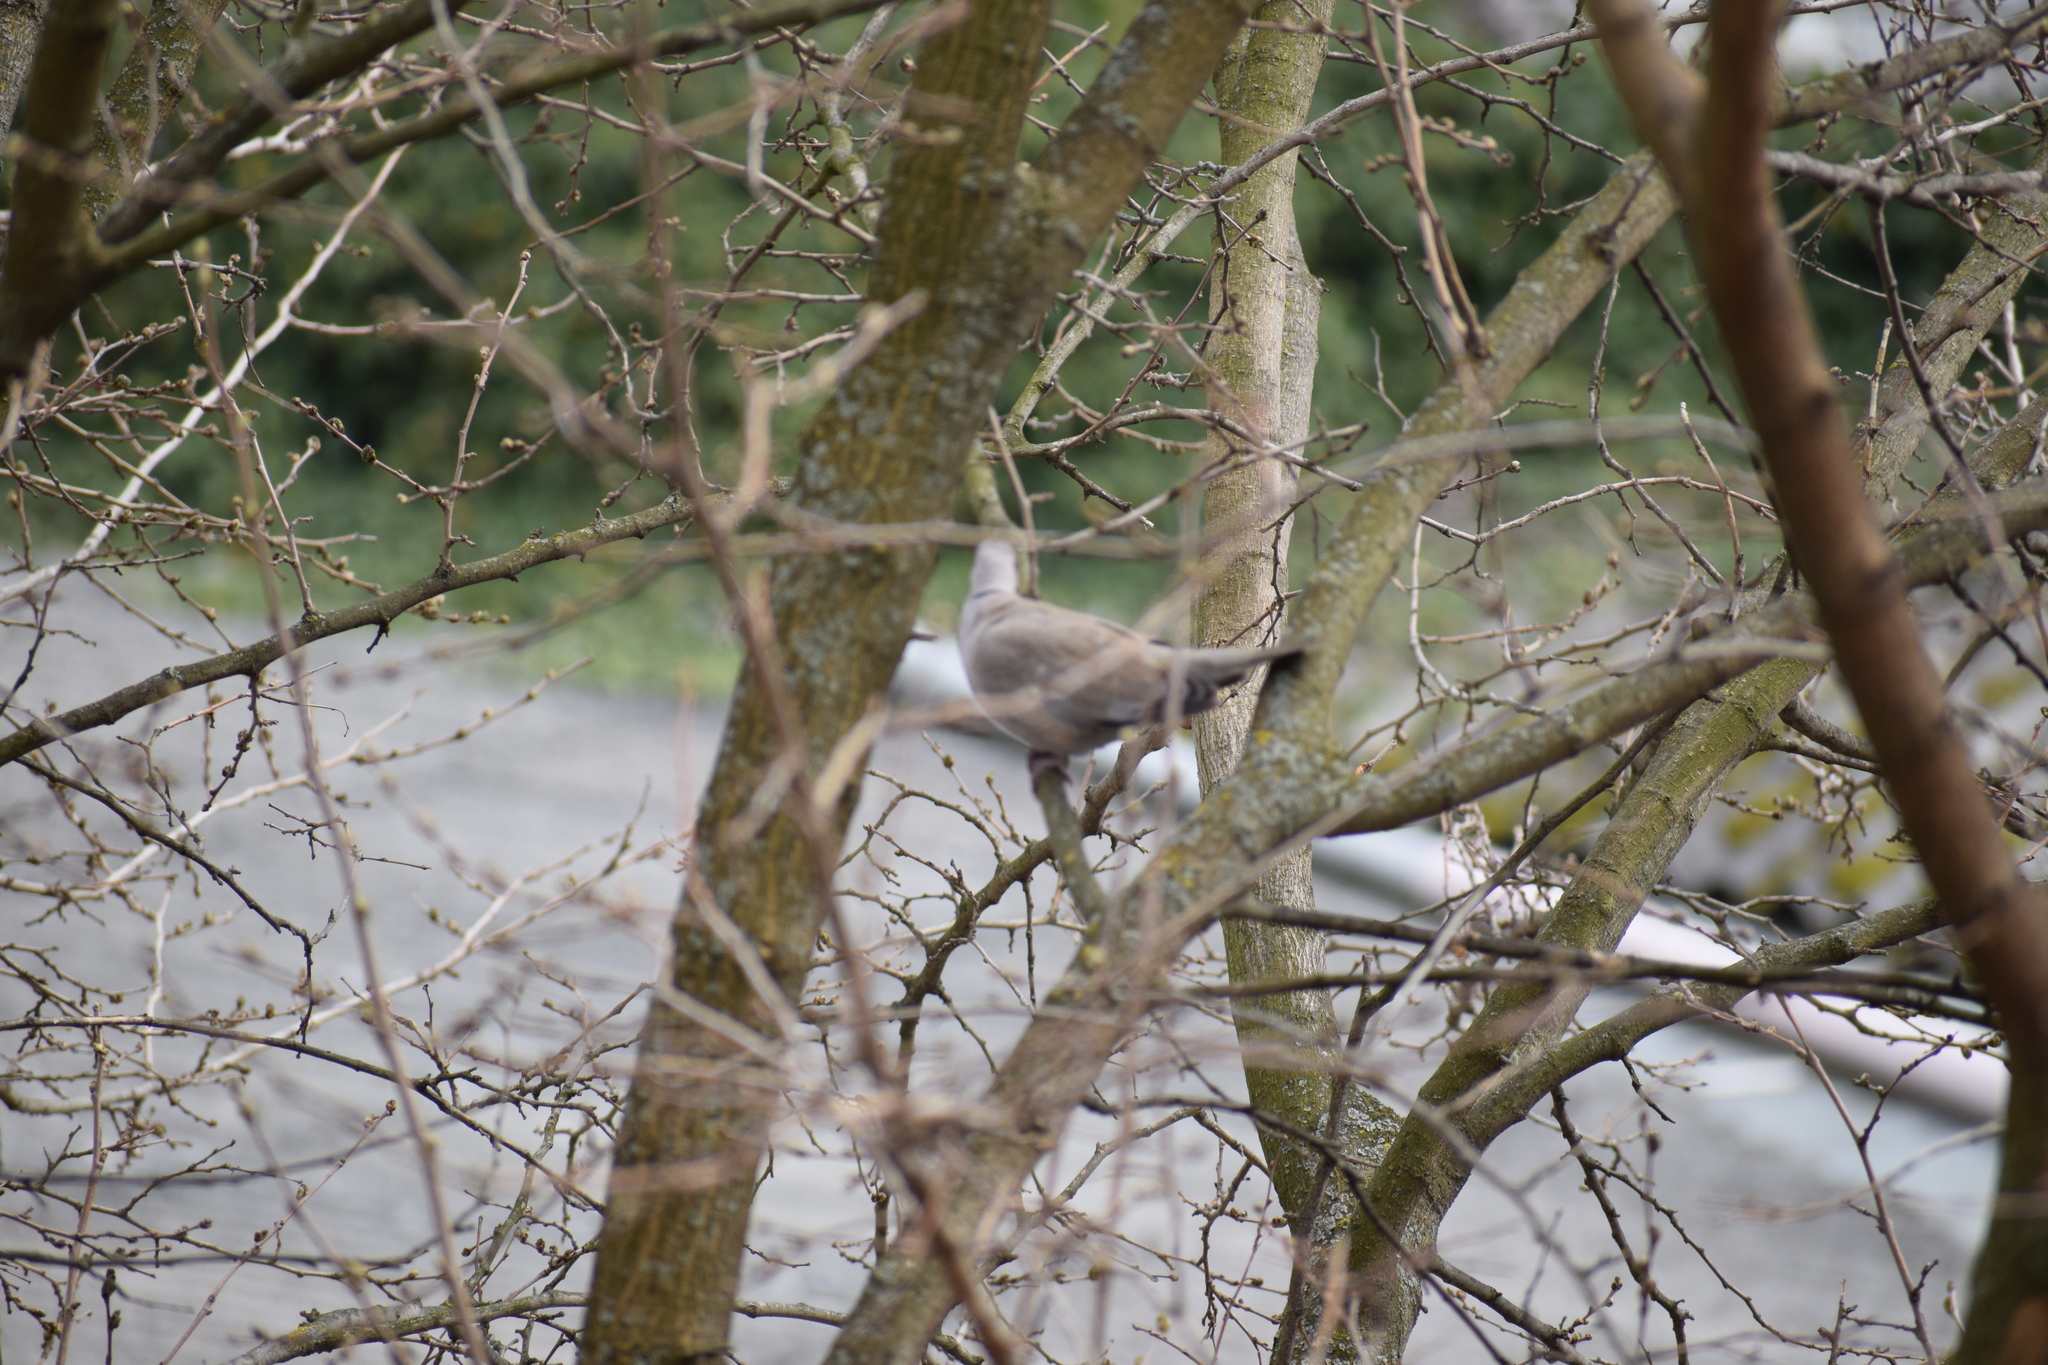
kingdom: Animalia
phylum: Chordata
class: Aves
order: Columbiformes
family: Columbidae
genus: Streptopelia
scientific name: Streptopelia decaocto
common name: Eurasian collared dove
